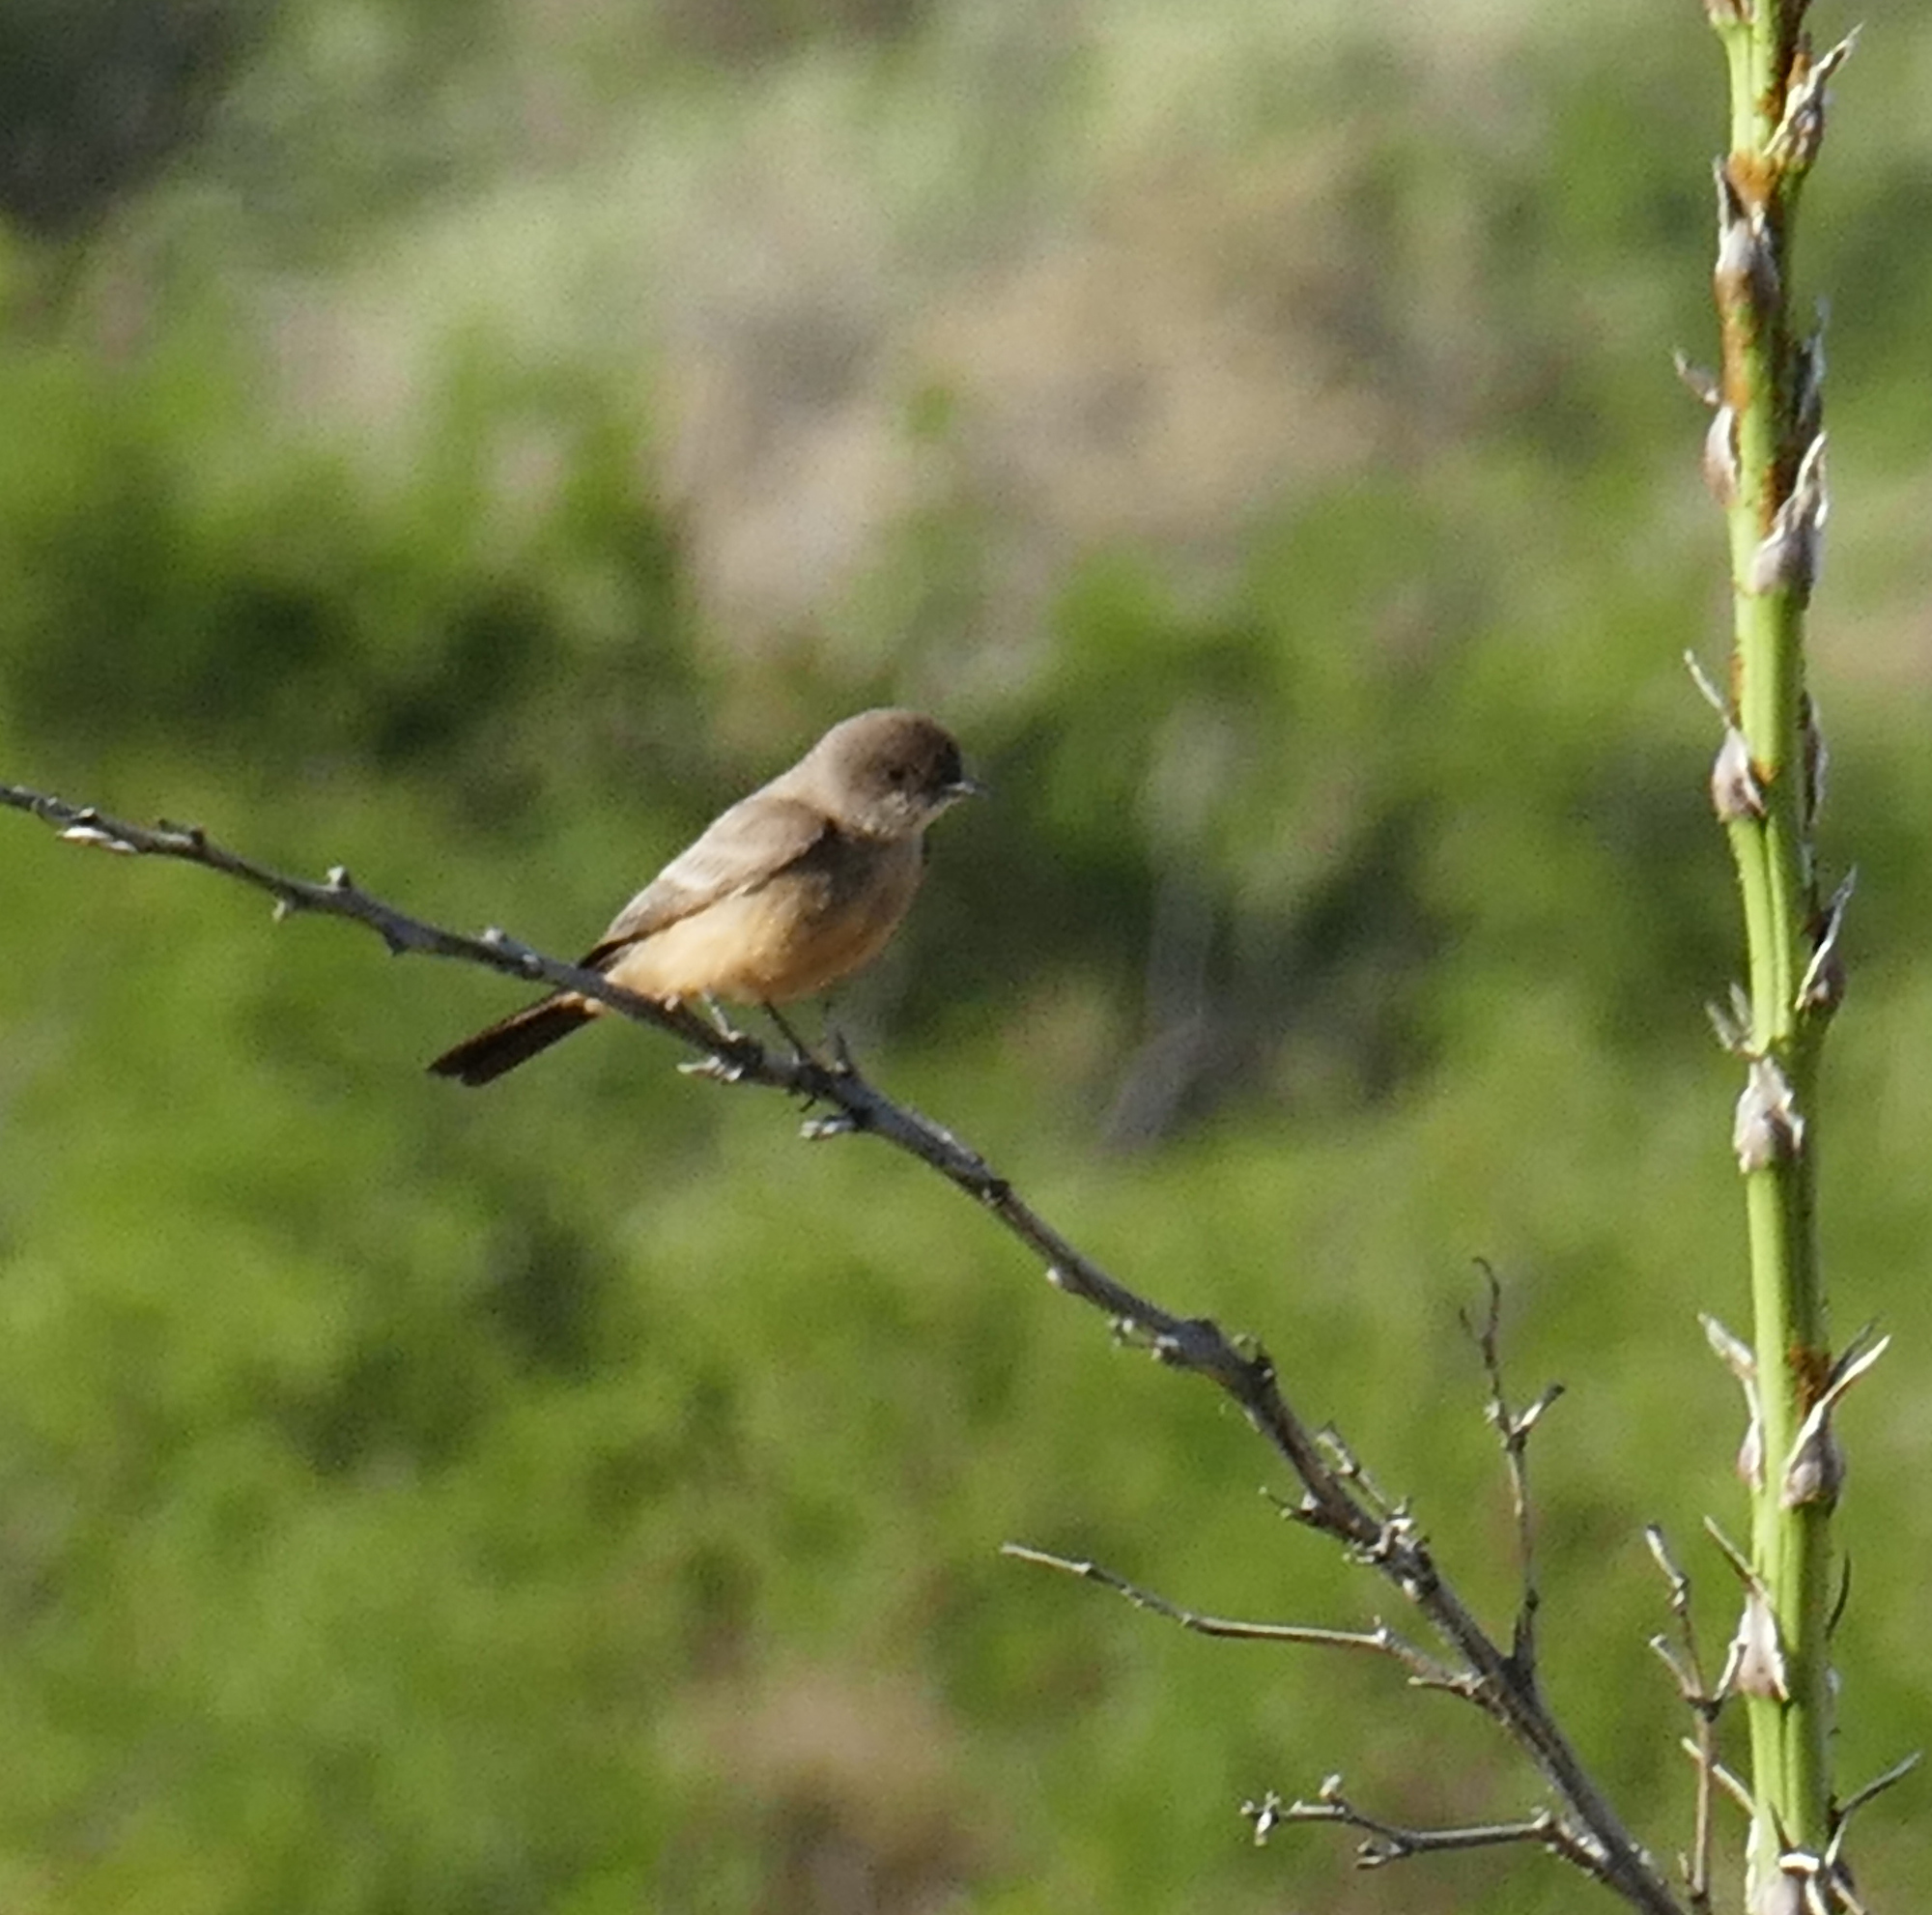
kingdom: Animalia
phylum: Chordata
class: Aves
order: Passeriformes
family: Tyrannidae
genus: Sayornis
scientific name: Sayornis saya
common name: Say's phoebe
